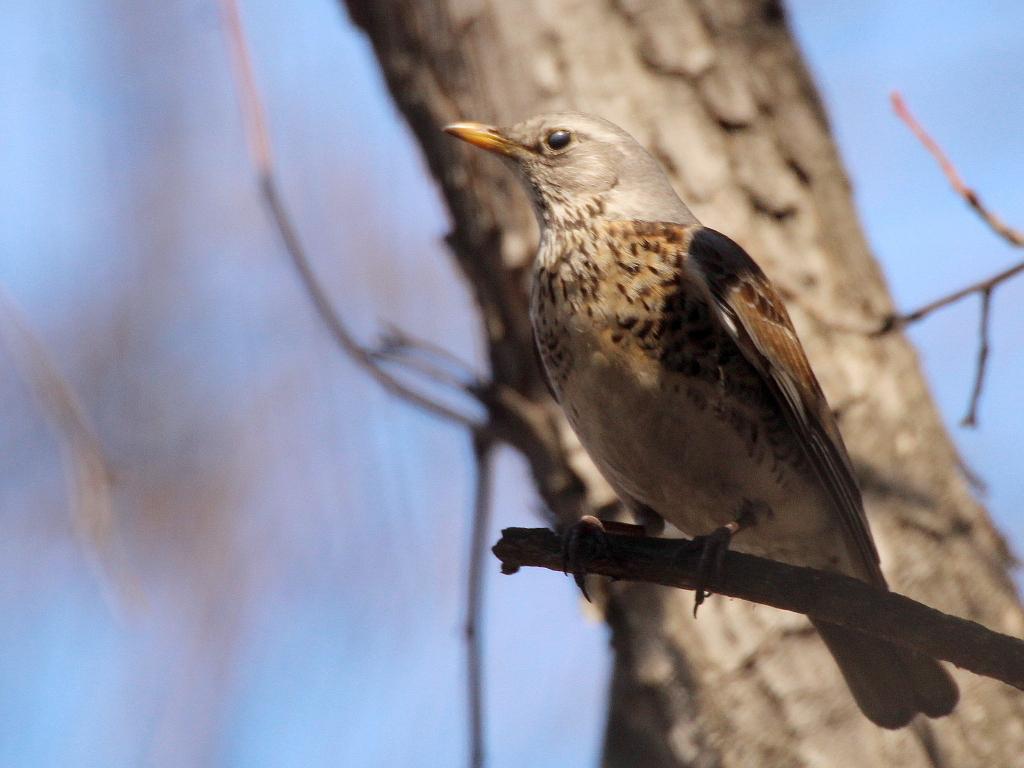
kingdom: Animalia
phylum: Chordata
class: Aves
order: Passeriformes
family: Turdidae
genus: Turdus
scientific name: Turdus pilaris
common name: Fieldfare
